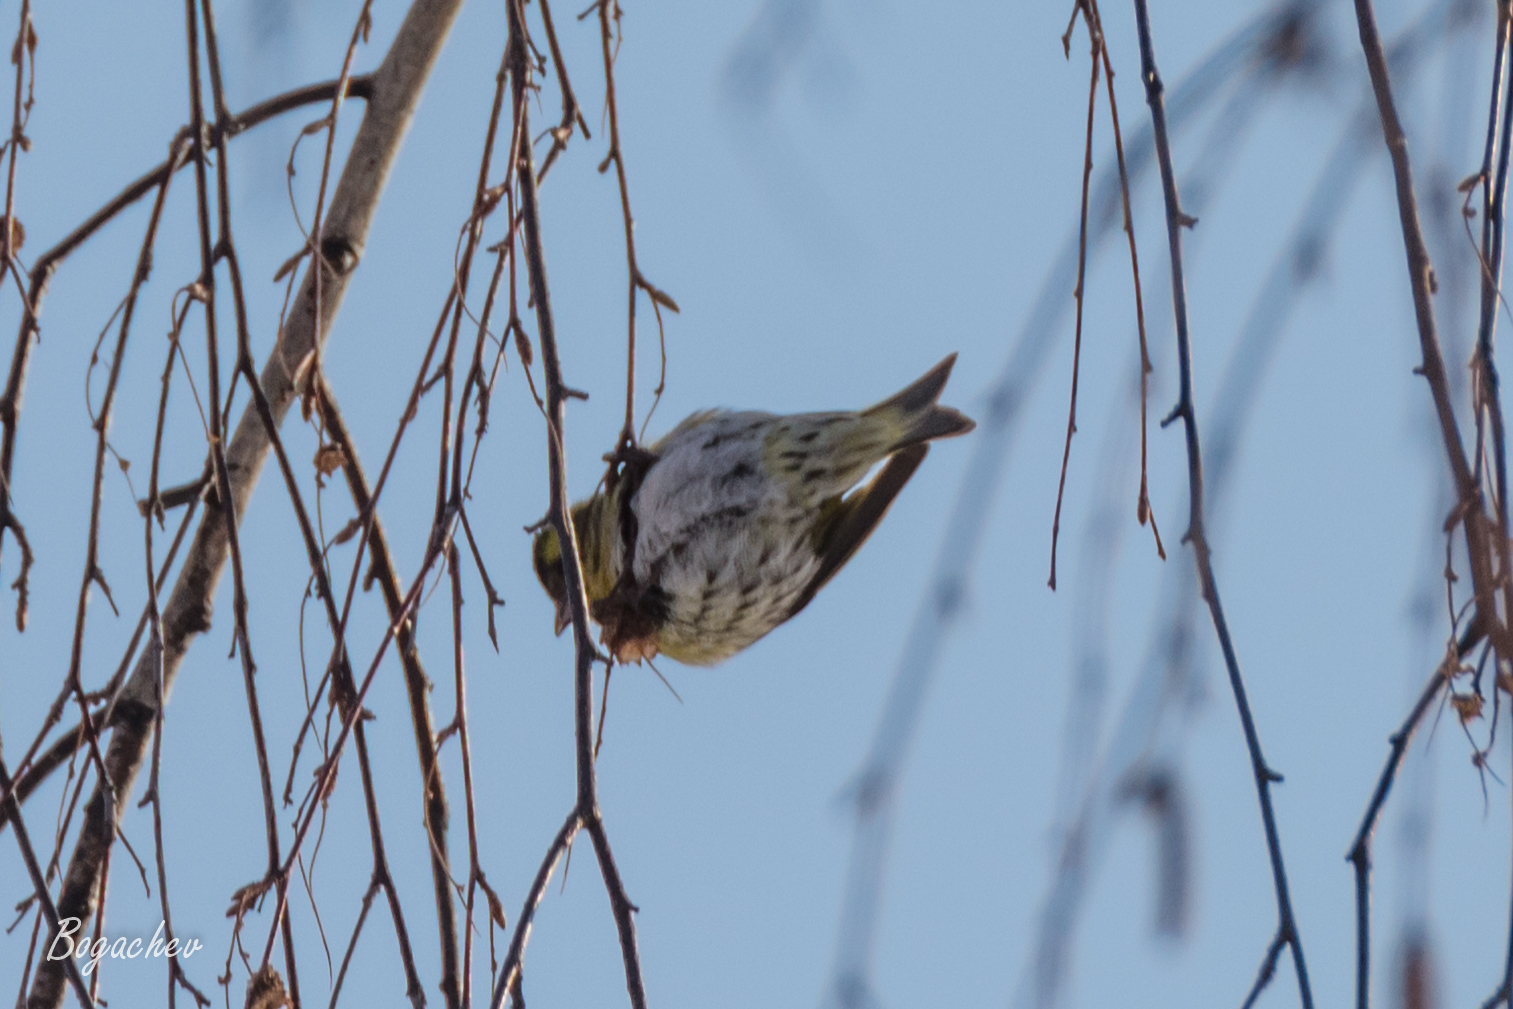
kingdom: Animalia
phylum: Chordata
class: Aves
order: Passeriformes
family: Fringillidae
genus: Spinus
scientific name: Spinus spinus
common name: Eurasian siskin
